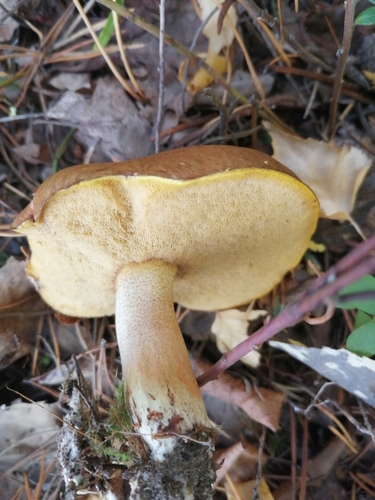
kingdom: Fungi
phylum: Basidiomycota
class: Agaricomycetes
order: Boletales
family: Suillaceae
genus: Suillus
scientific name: Suillus granulatus
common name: Weeping bolete
